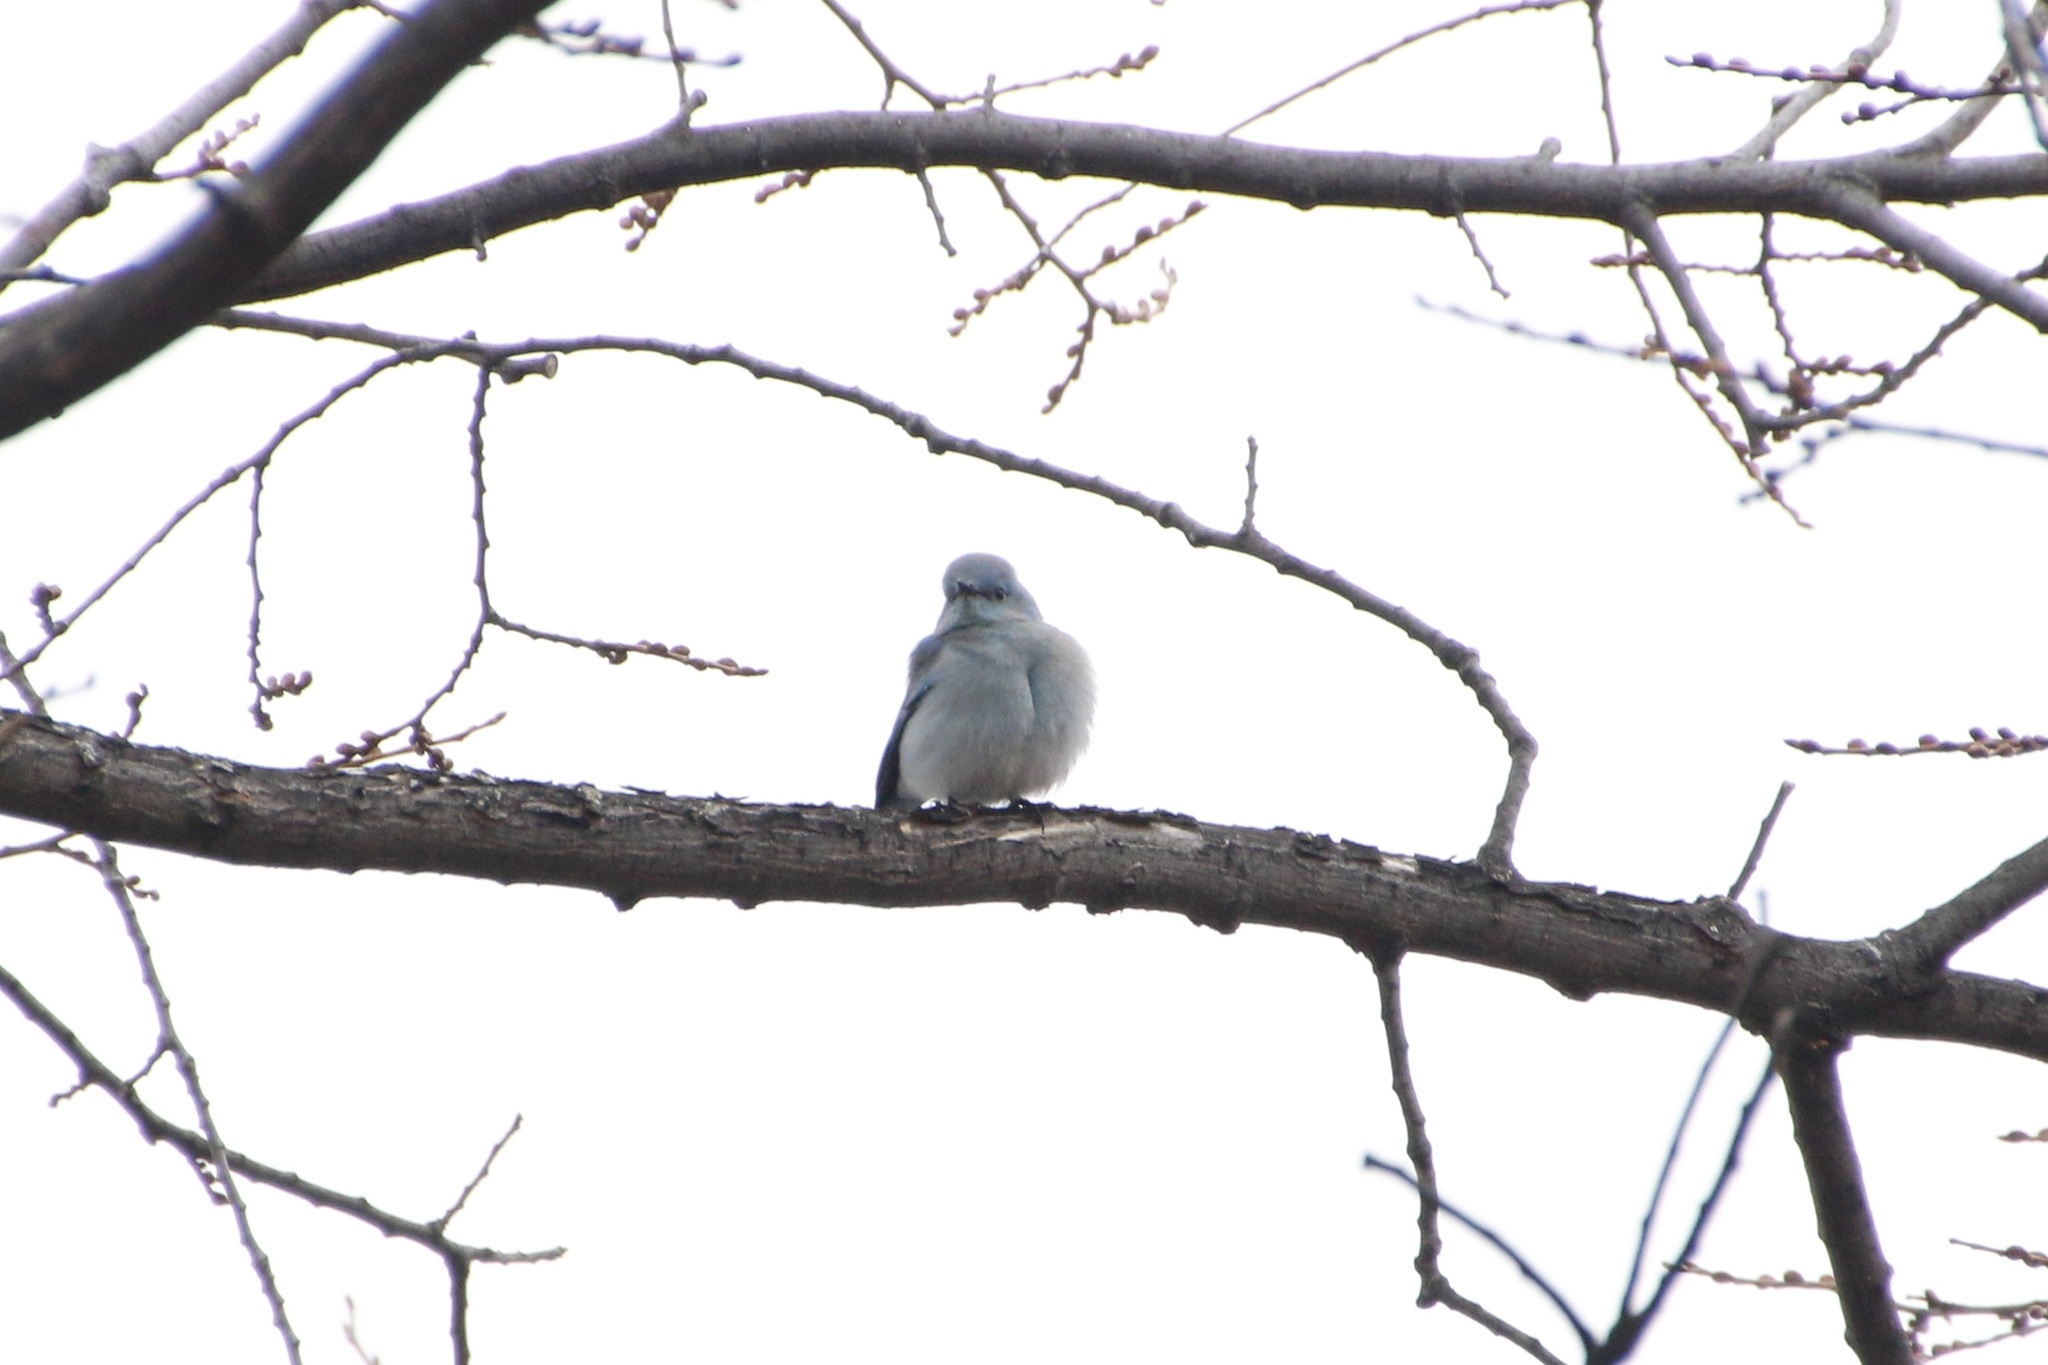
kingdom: Animalia
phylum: Chordata
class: Aves
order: Passeriformes
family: Turdidae
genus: Sialia
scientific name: Sialia currucoides
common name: Mountain bluebird
